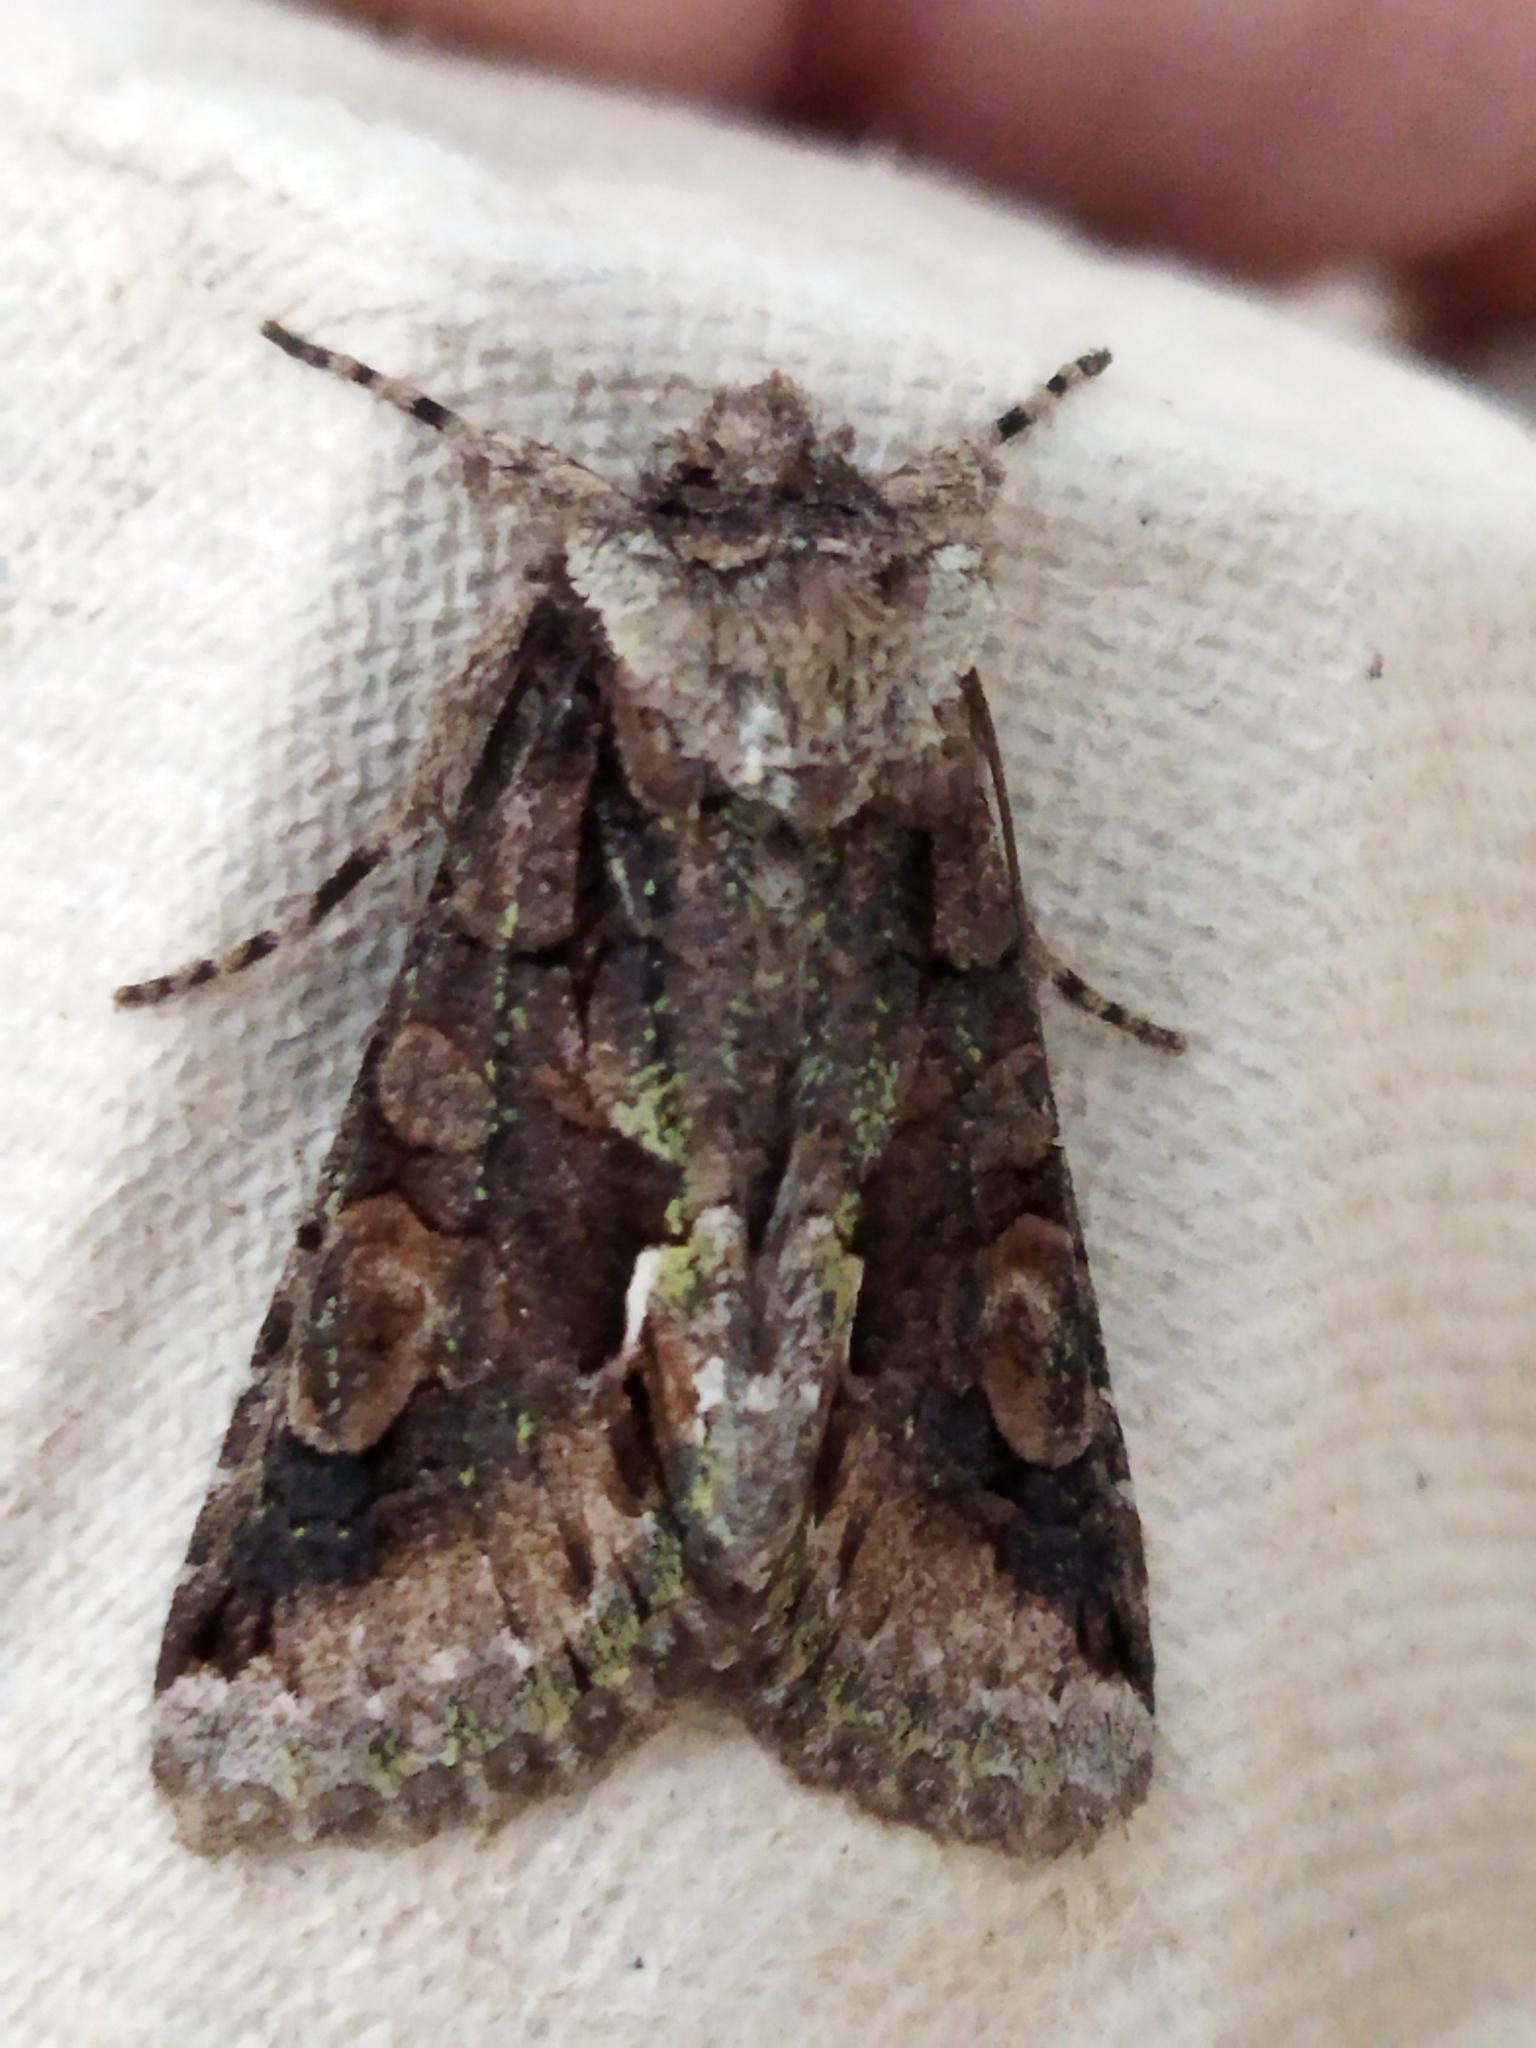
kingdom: Animalia
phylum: Arthropoda
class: Insecta
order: Lepidoptera
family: Noctuidae
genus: Allophyes
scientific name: Allophyes oxyacanthae
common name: Green-brindled crescent
